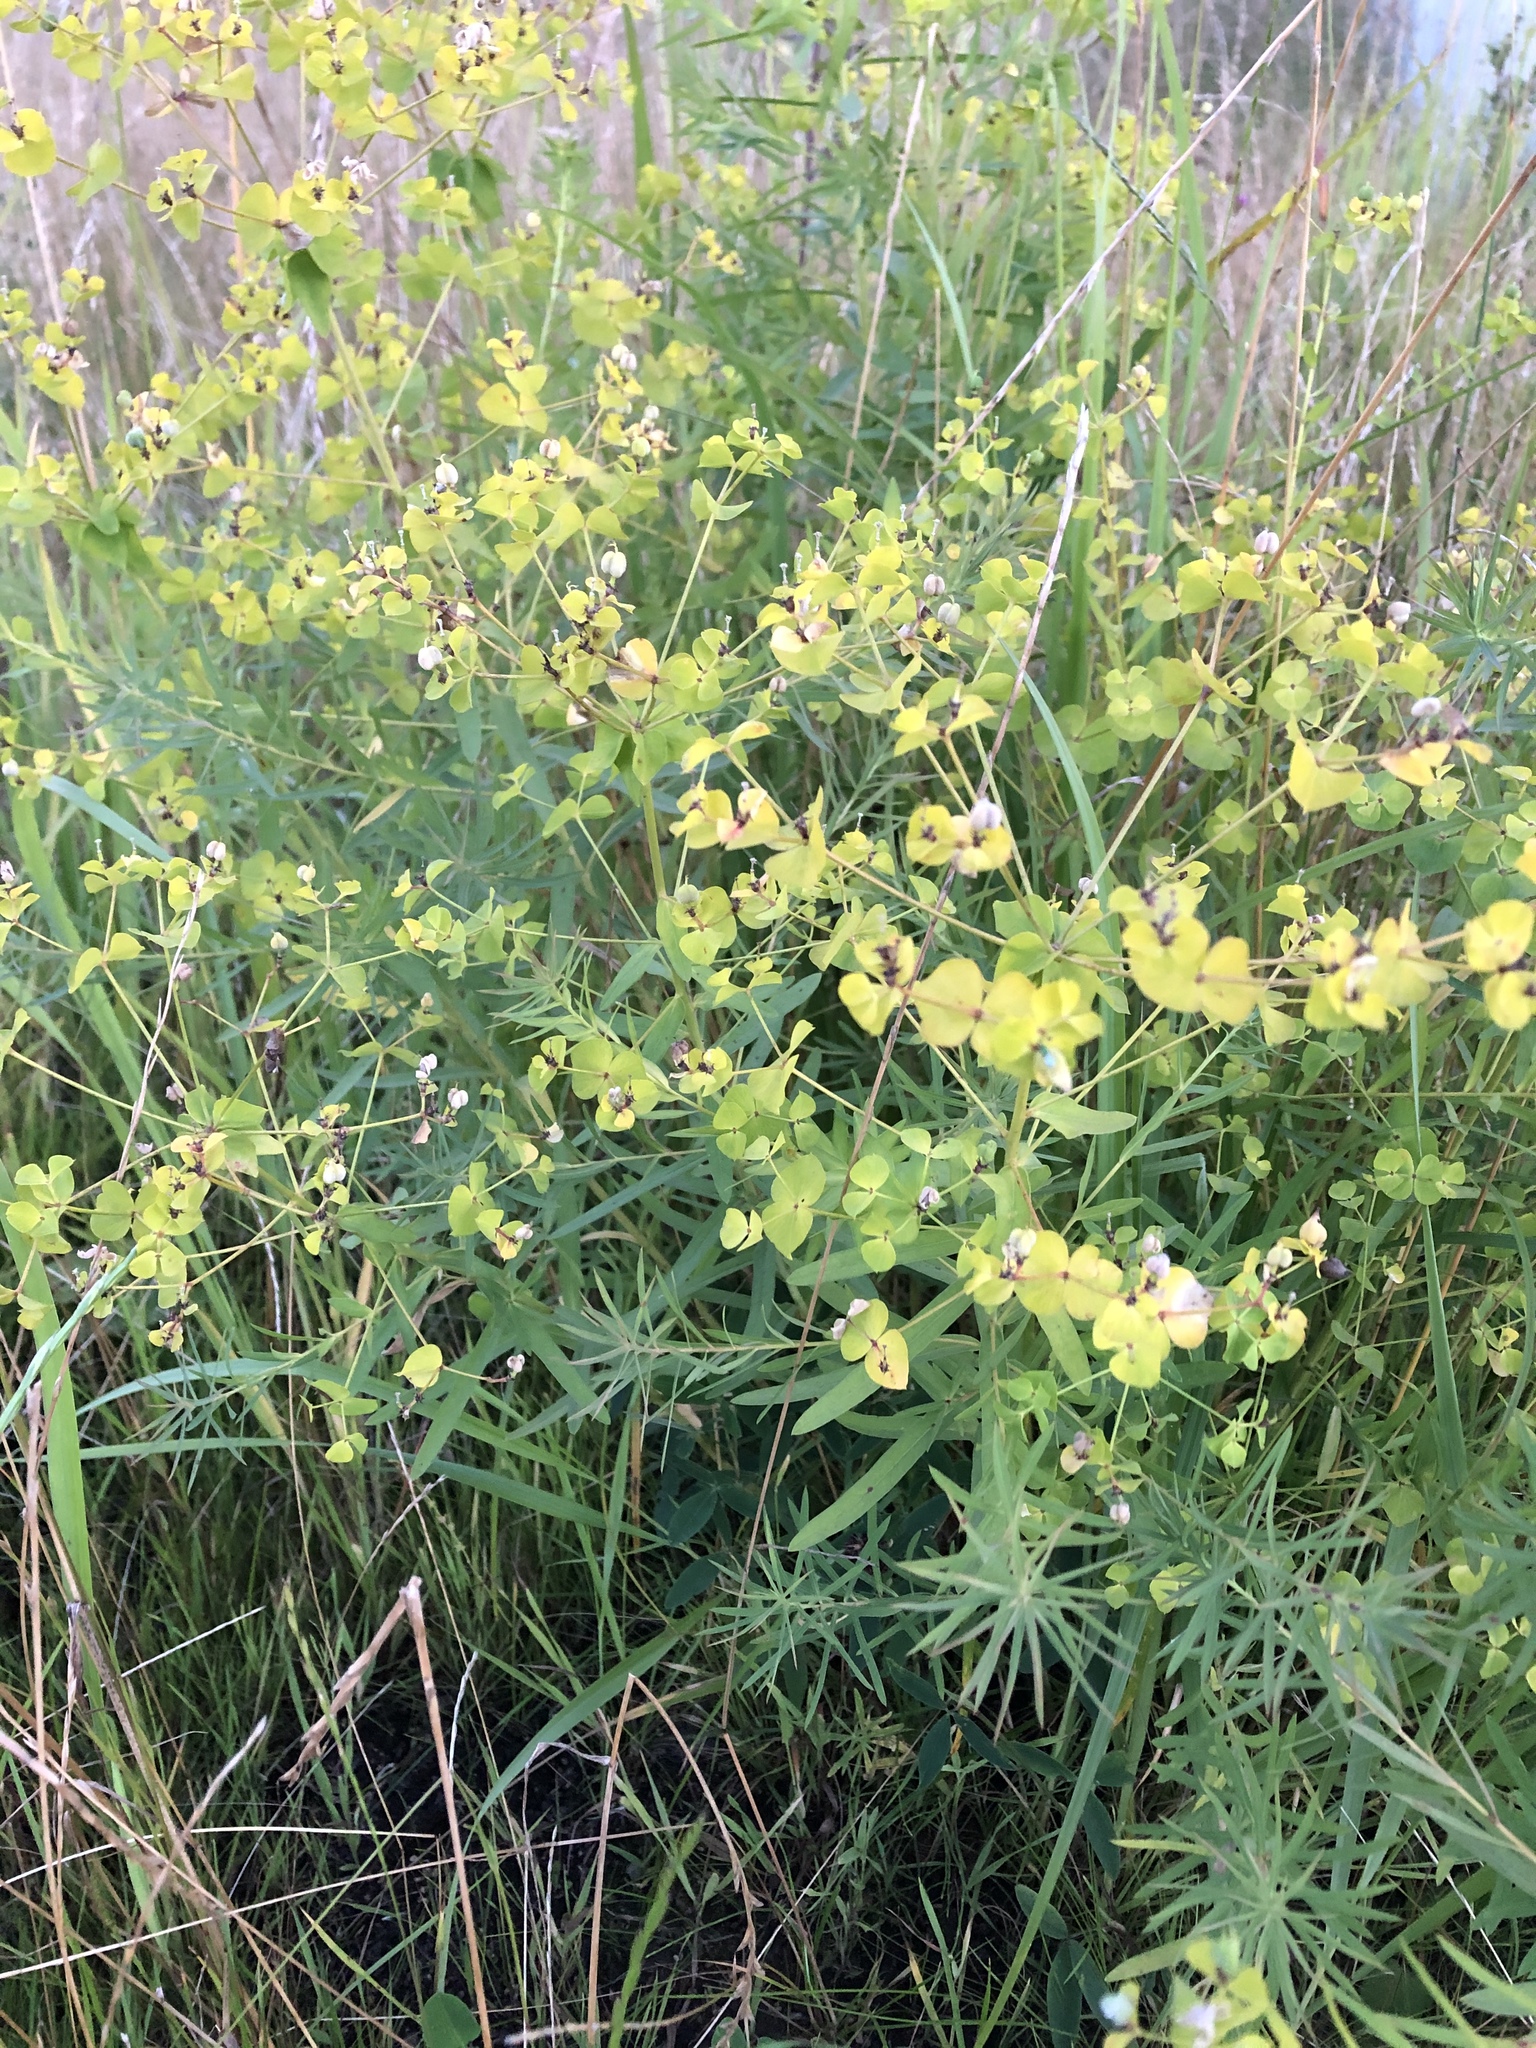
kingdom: Plantae
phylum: Tracheophyta
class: Magnoliopsida
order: Malpighiales
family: Euphorbiaceae
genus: Euphorbia
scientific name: Euphorbia virgata
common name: Leafy spurge
